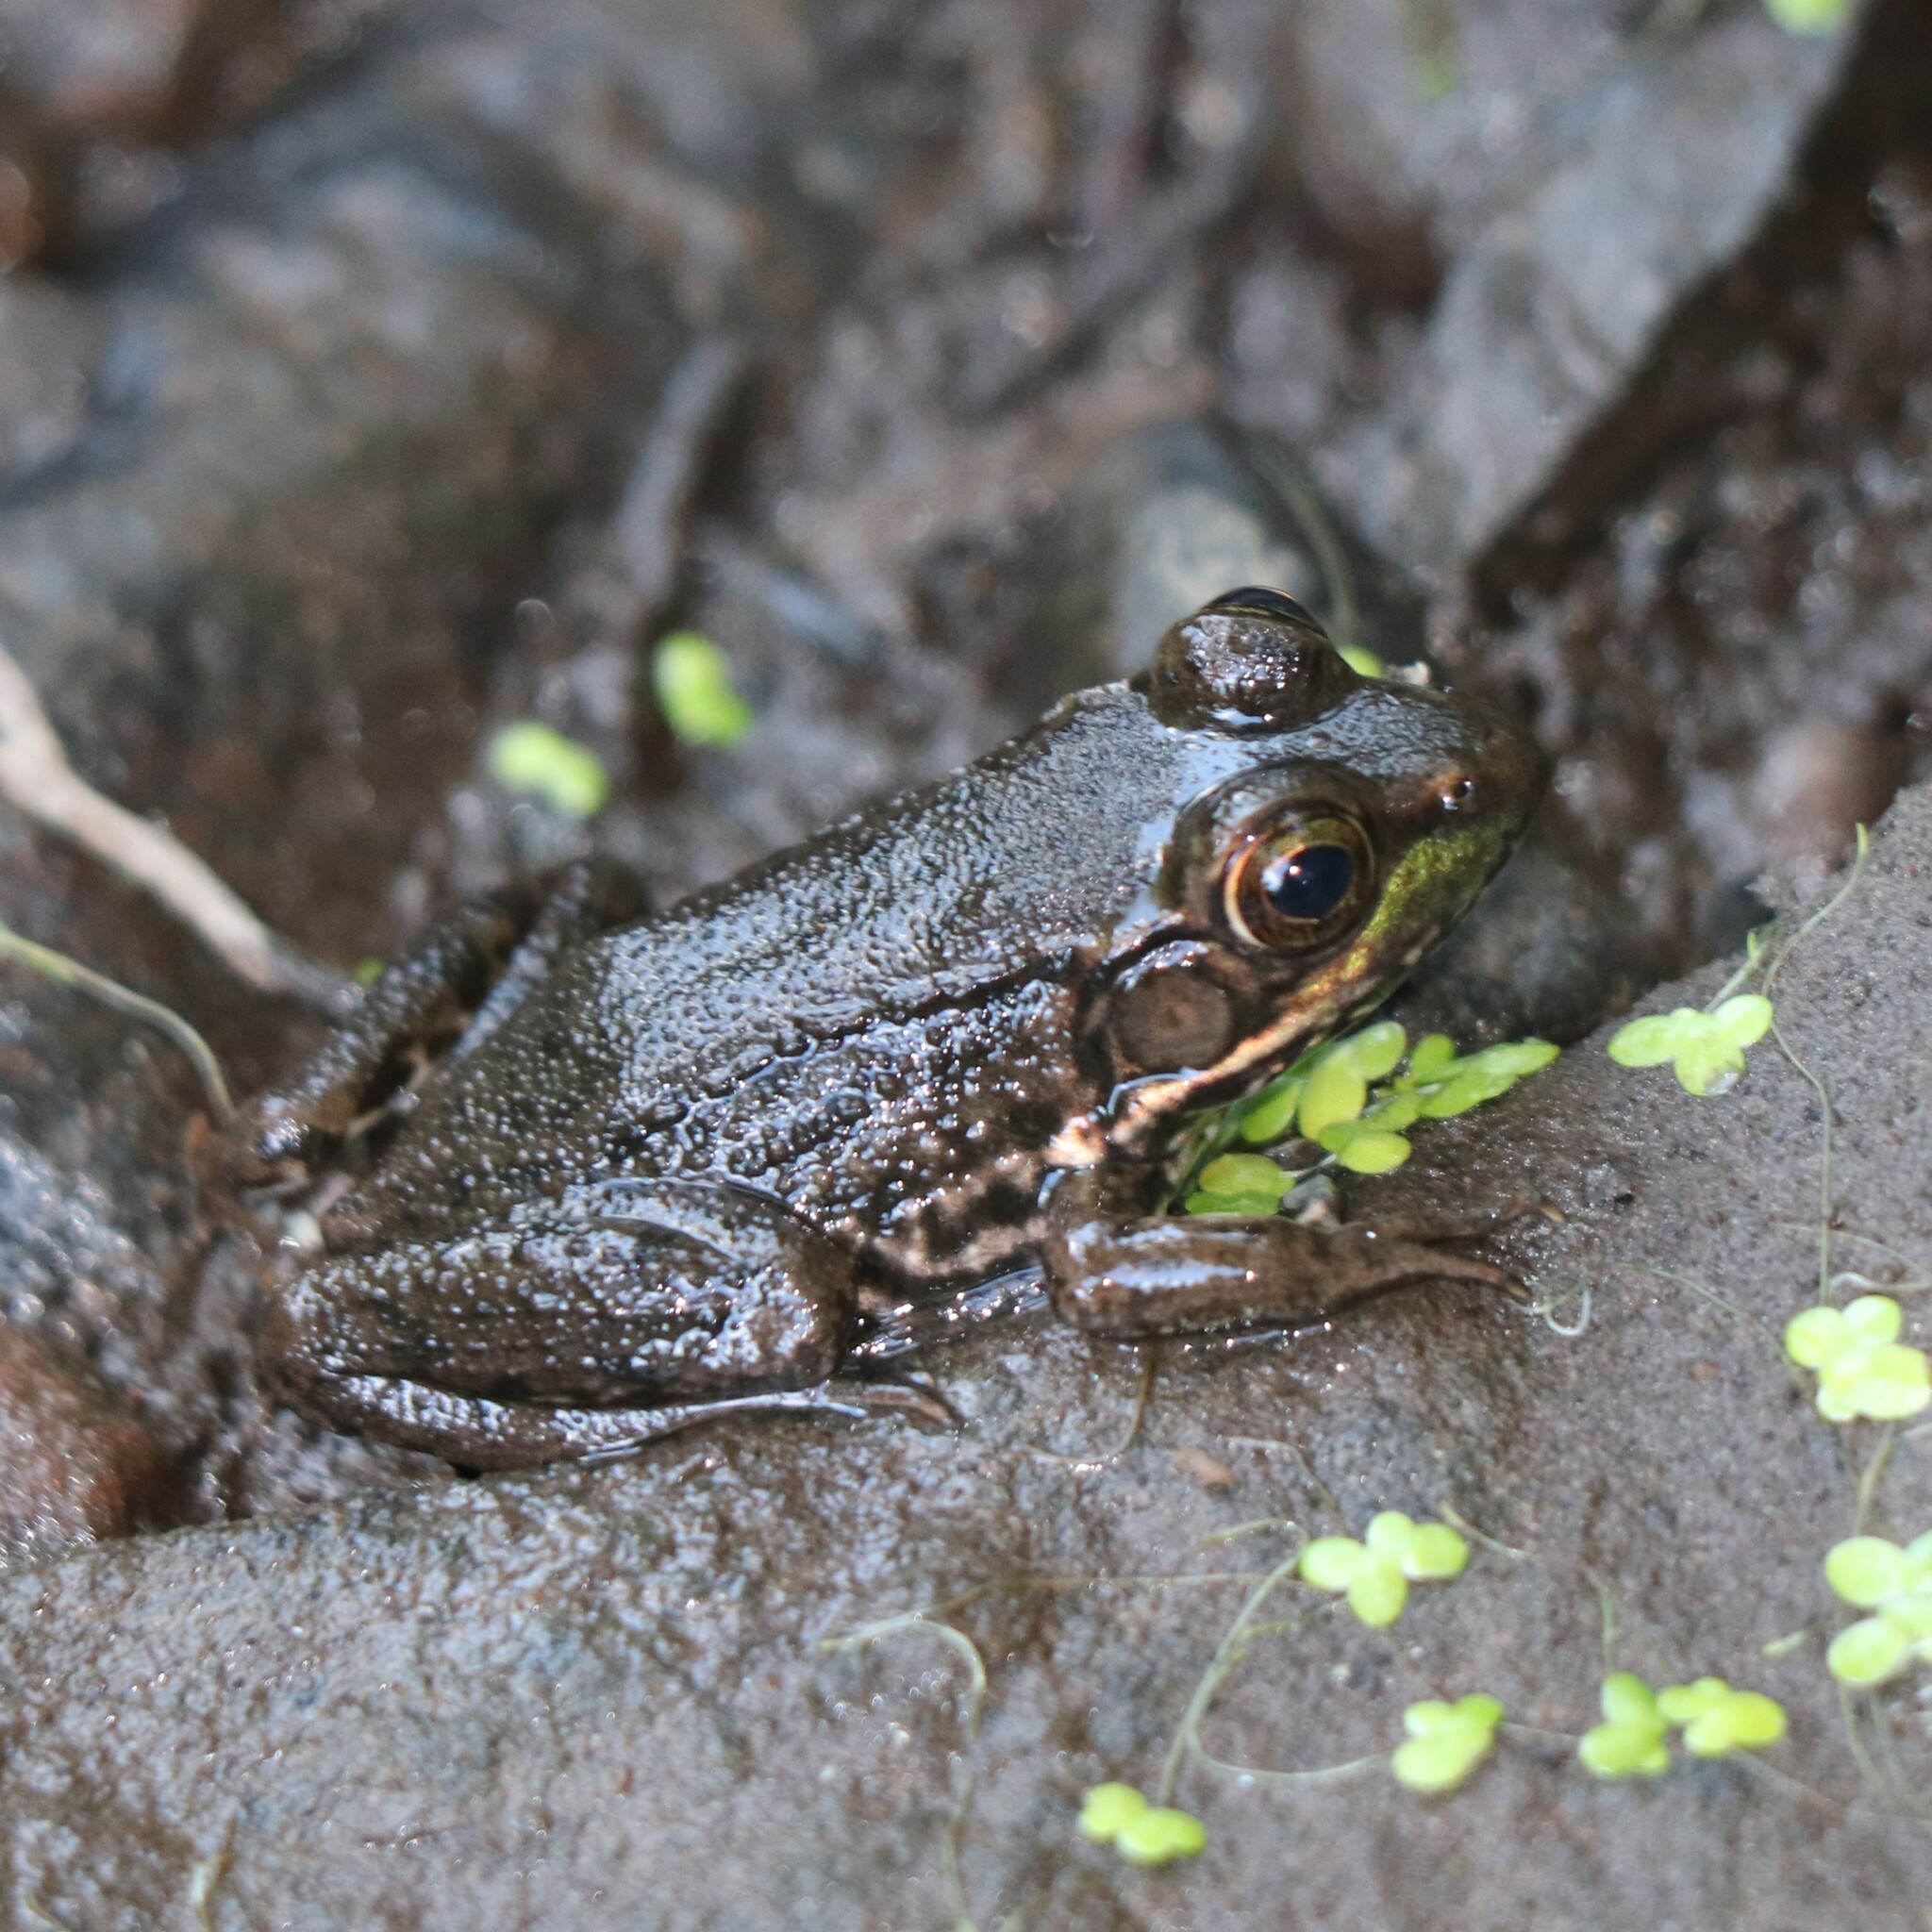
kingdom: Animalia
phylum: Chordata
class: Amphibia
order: Anura
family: Ranidae
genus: Lithobates
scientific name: Lithobates clamitans
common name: Green frog
